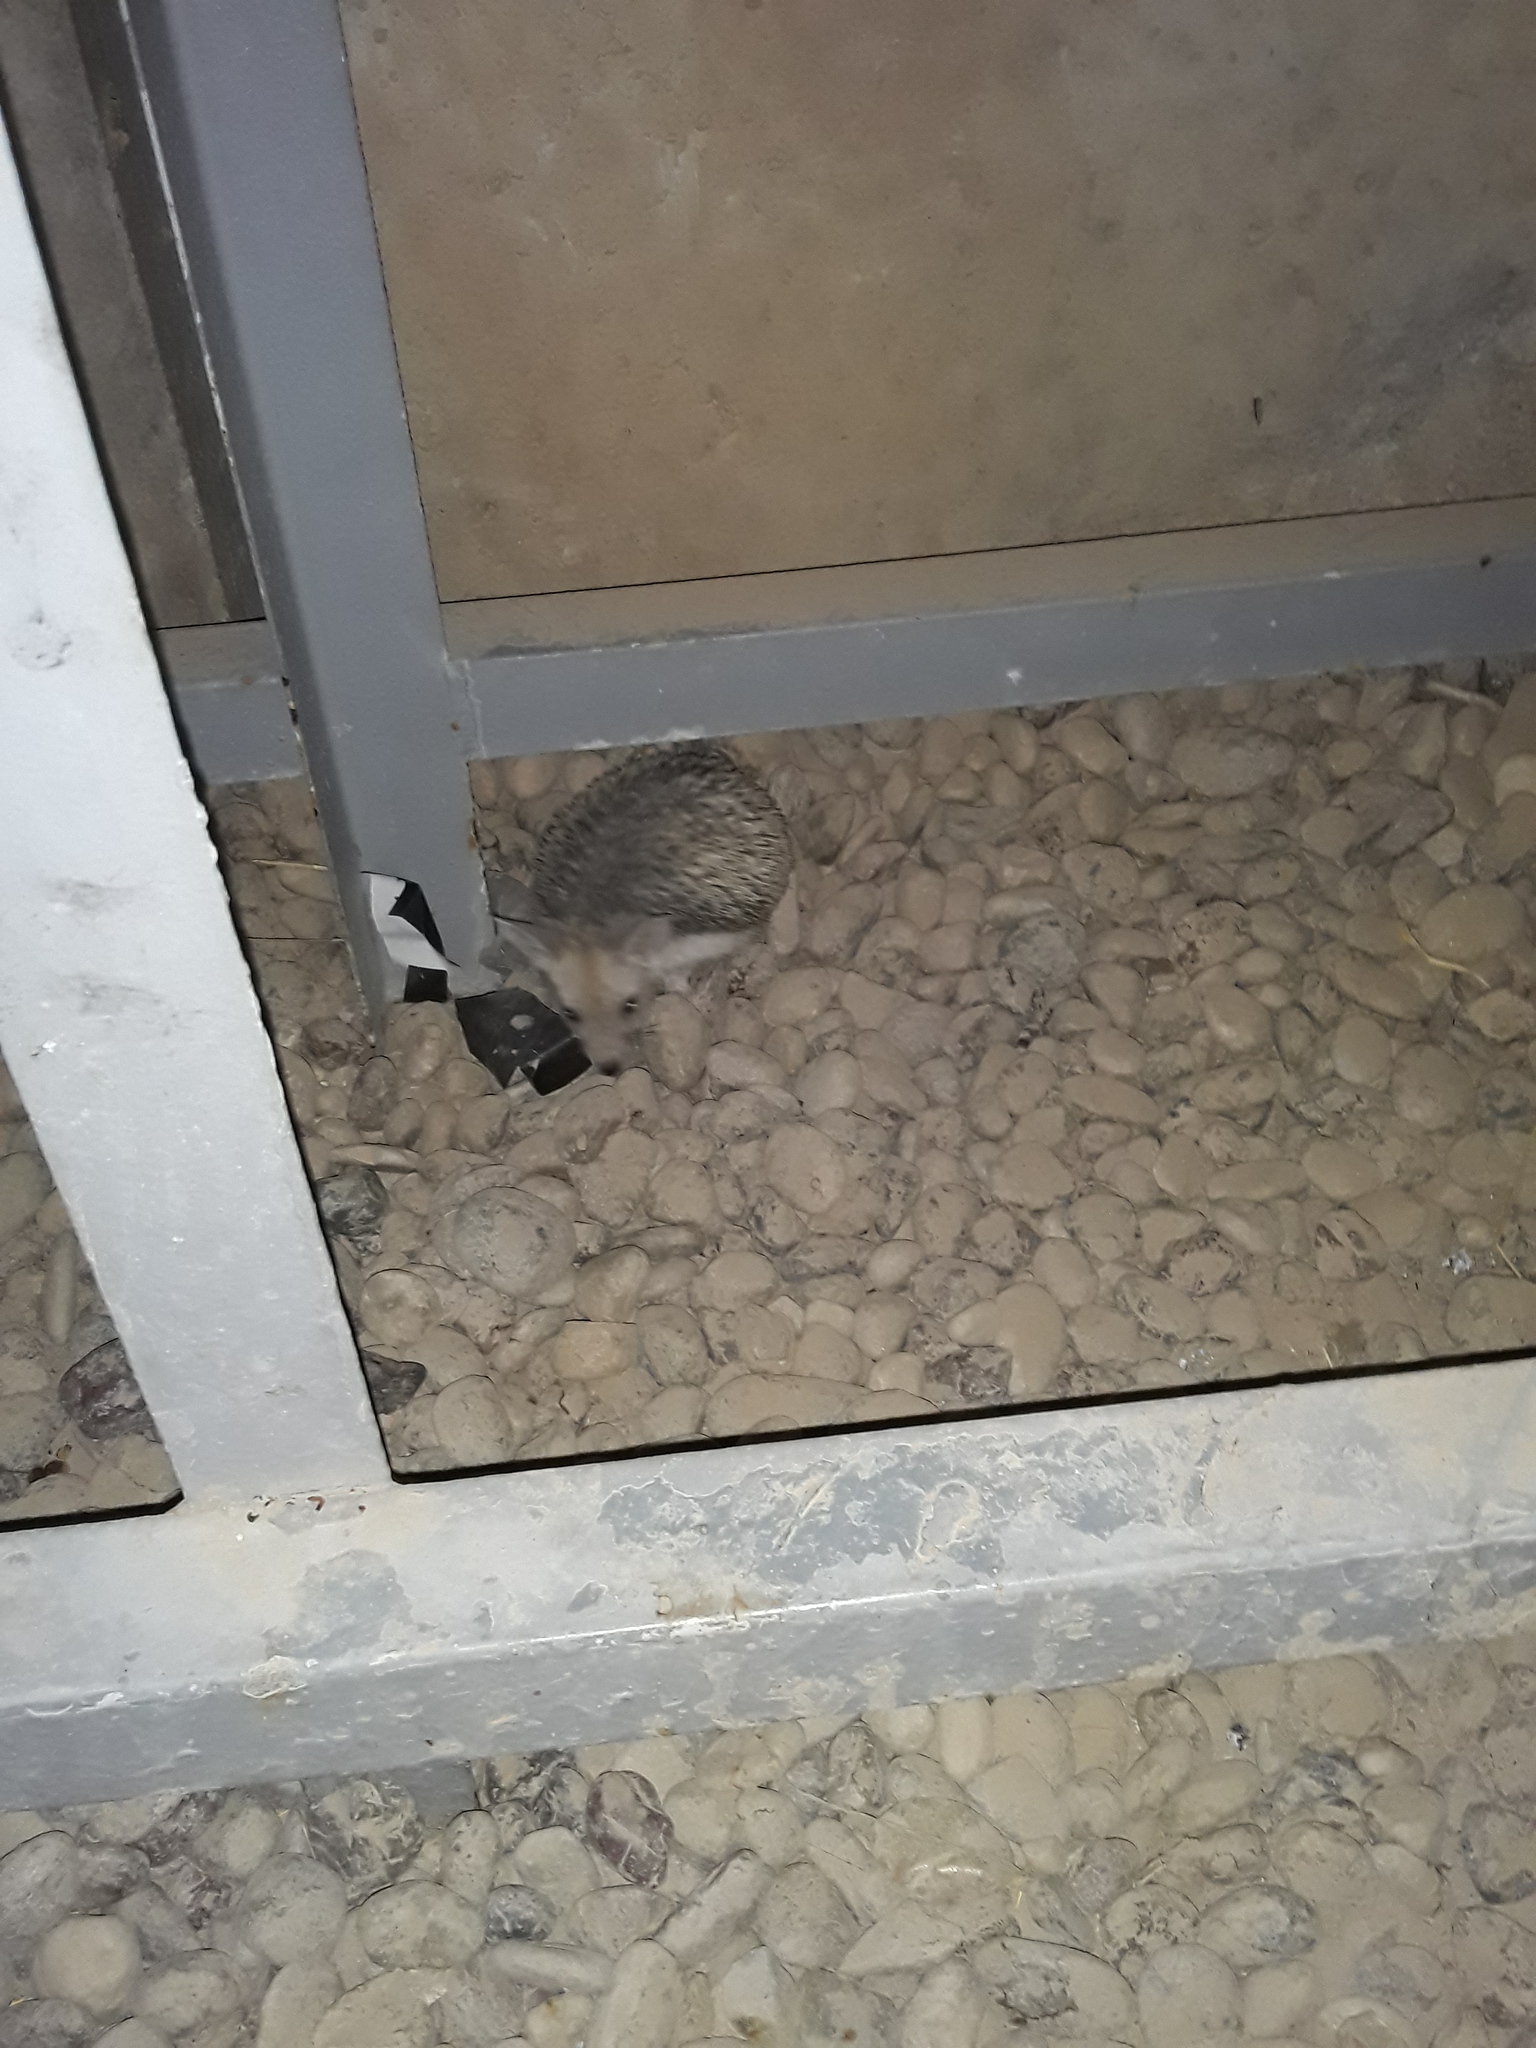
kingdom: Animalia
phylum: Chordata
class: Mammalia
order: Erinaceomorpha
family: Erinaceidae
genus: Hemiechinus
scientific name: Hemiechinus auritus
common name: Long-eared hedgehog
